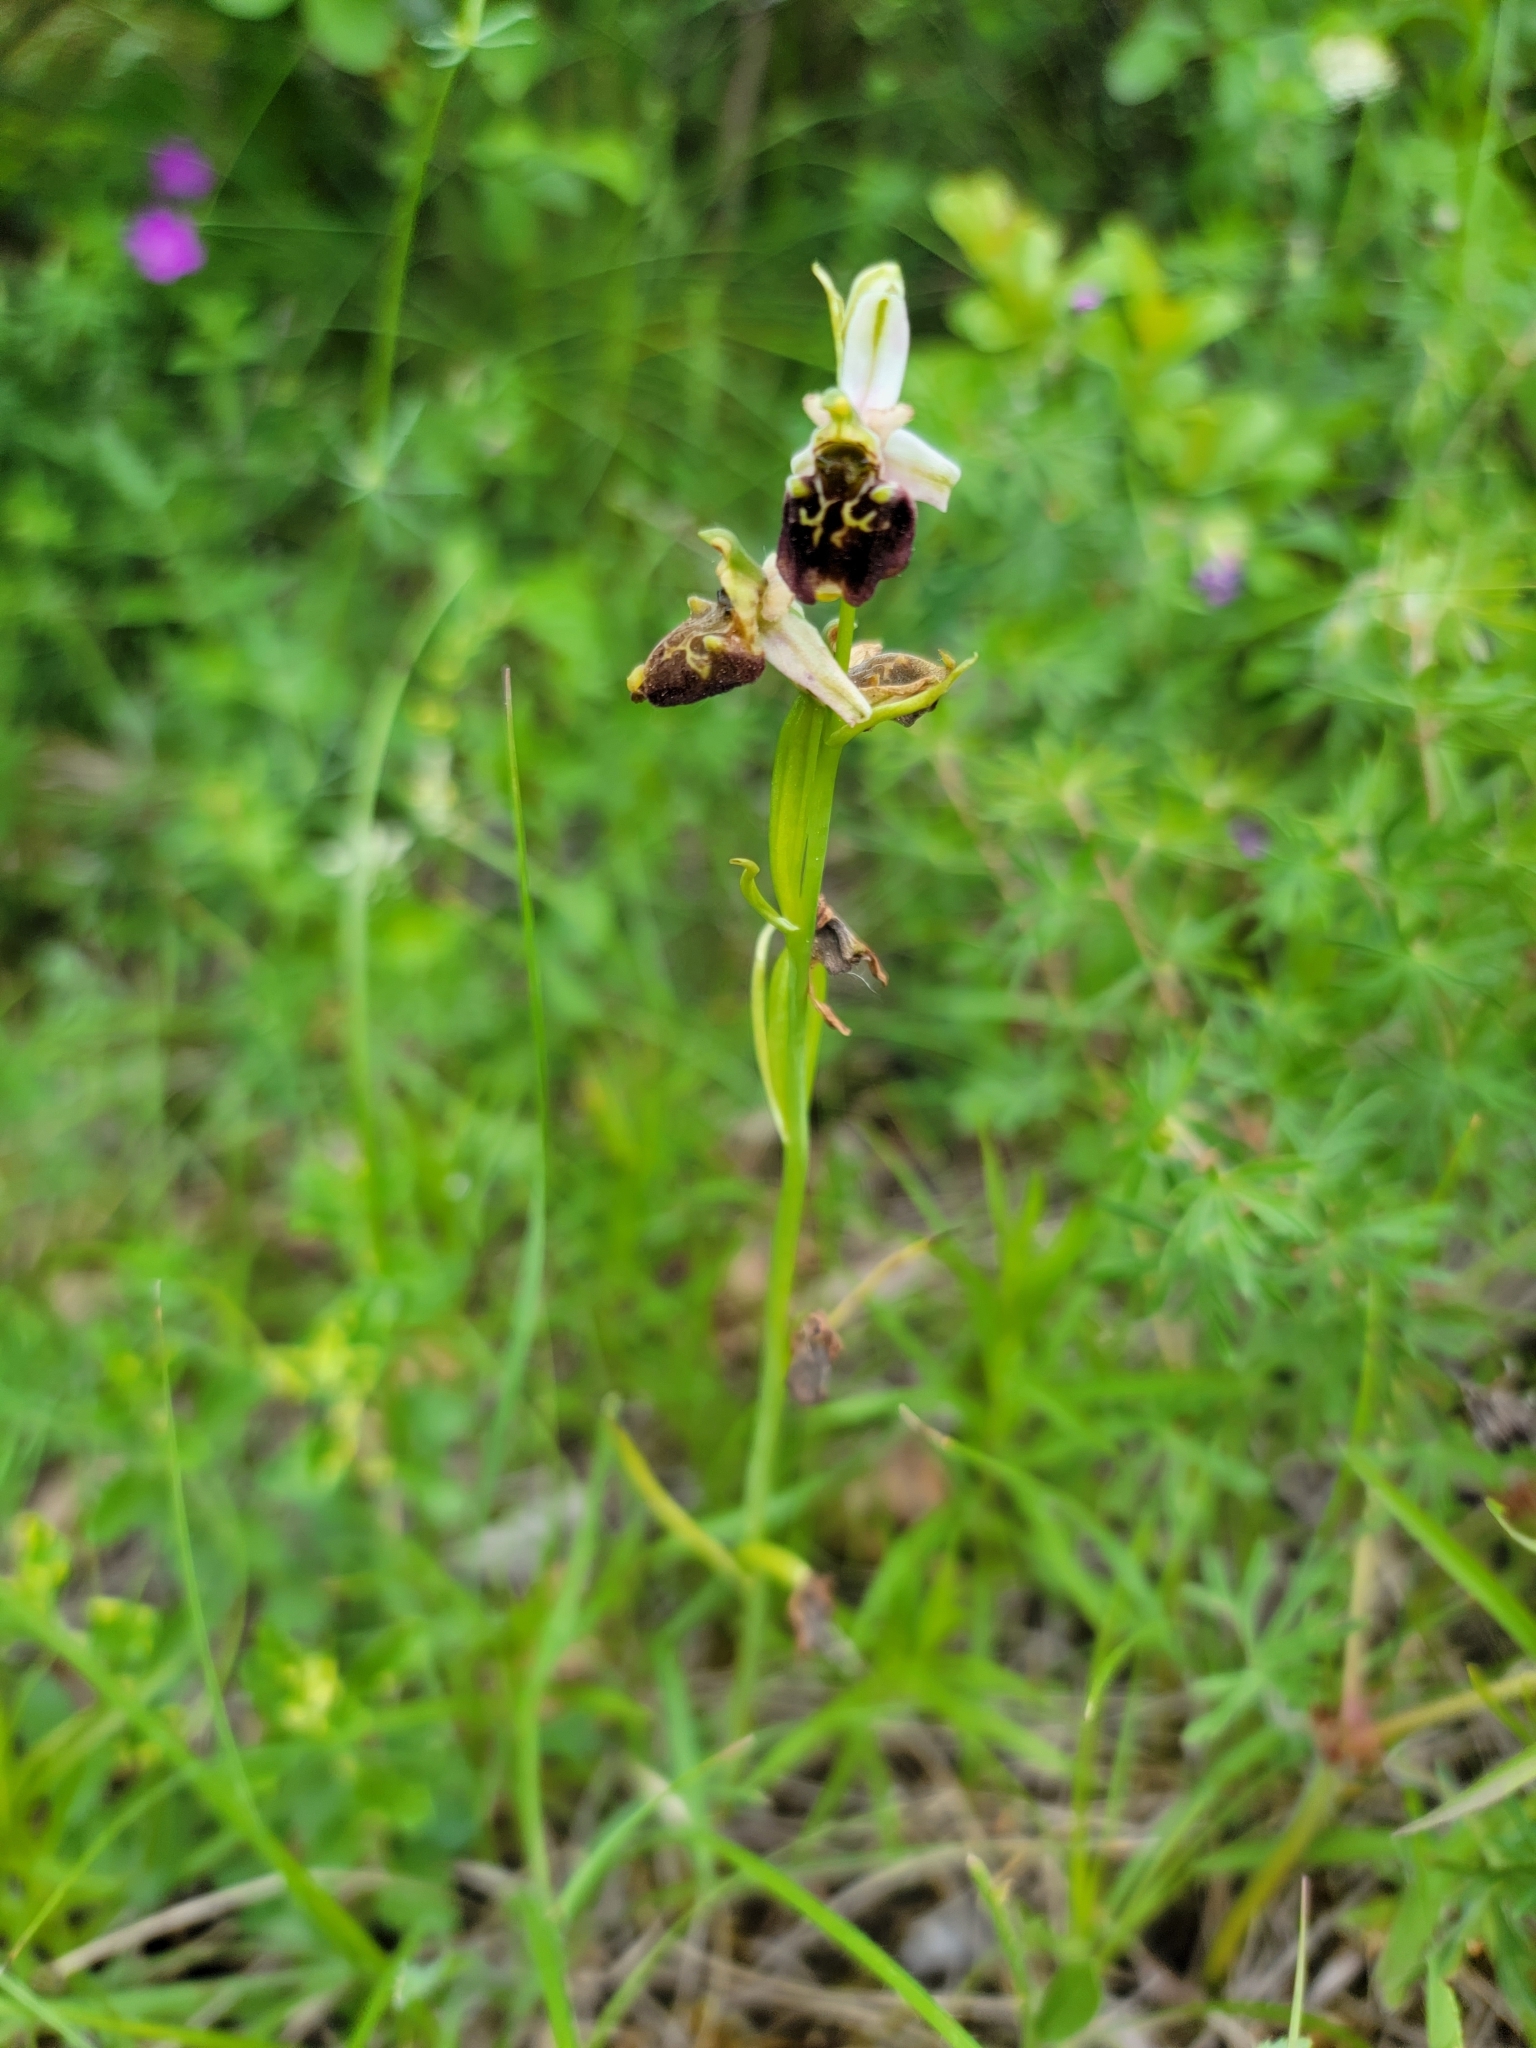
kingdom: Plantae
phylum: Tracheophyta
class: Liliopsida
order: Asparagales
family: Orchidaceae
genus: Ophrys
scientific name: Ophrys holosericea
